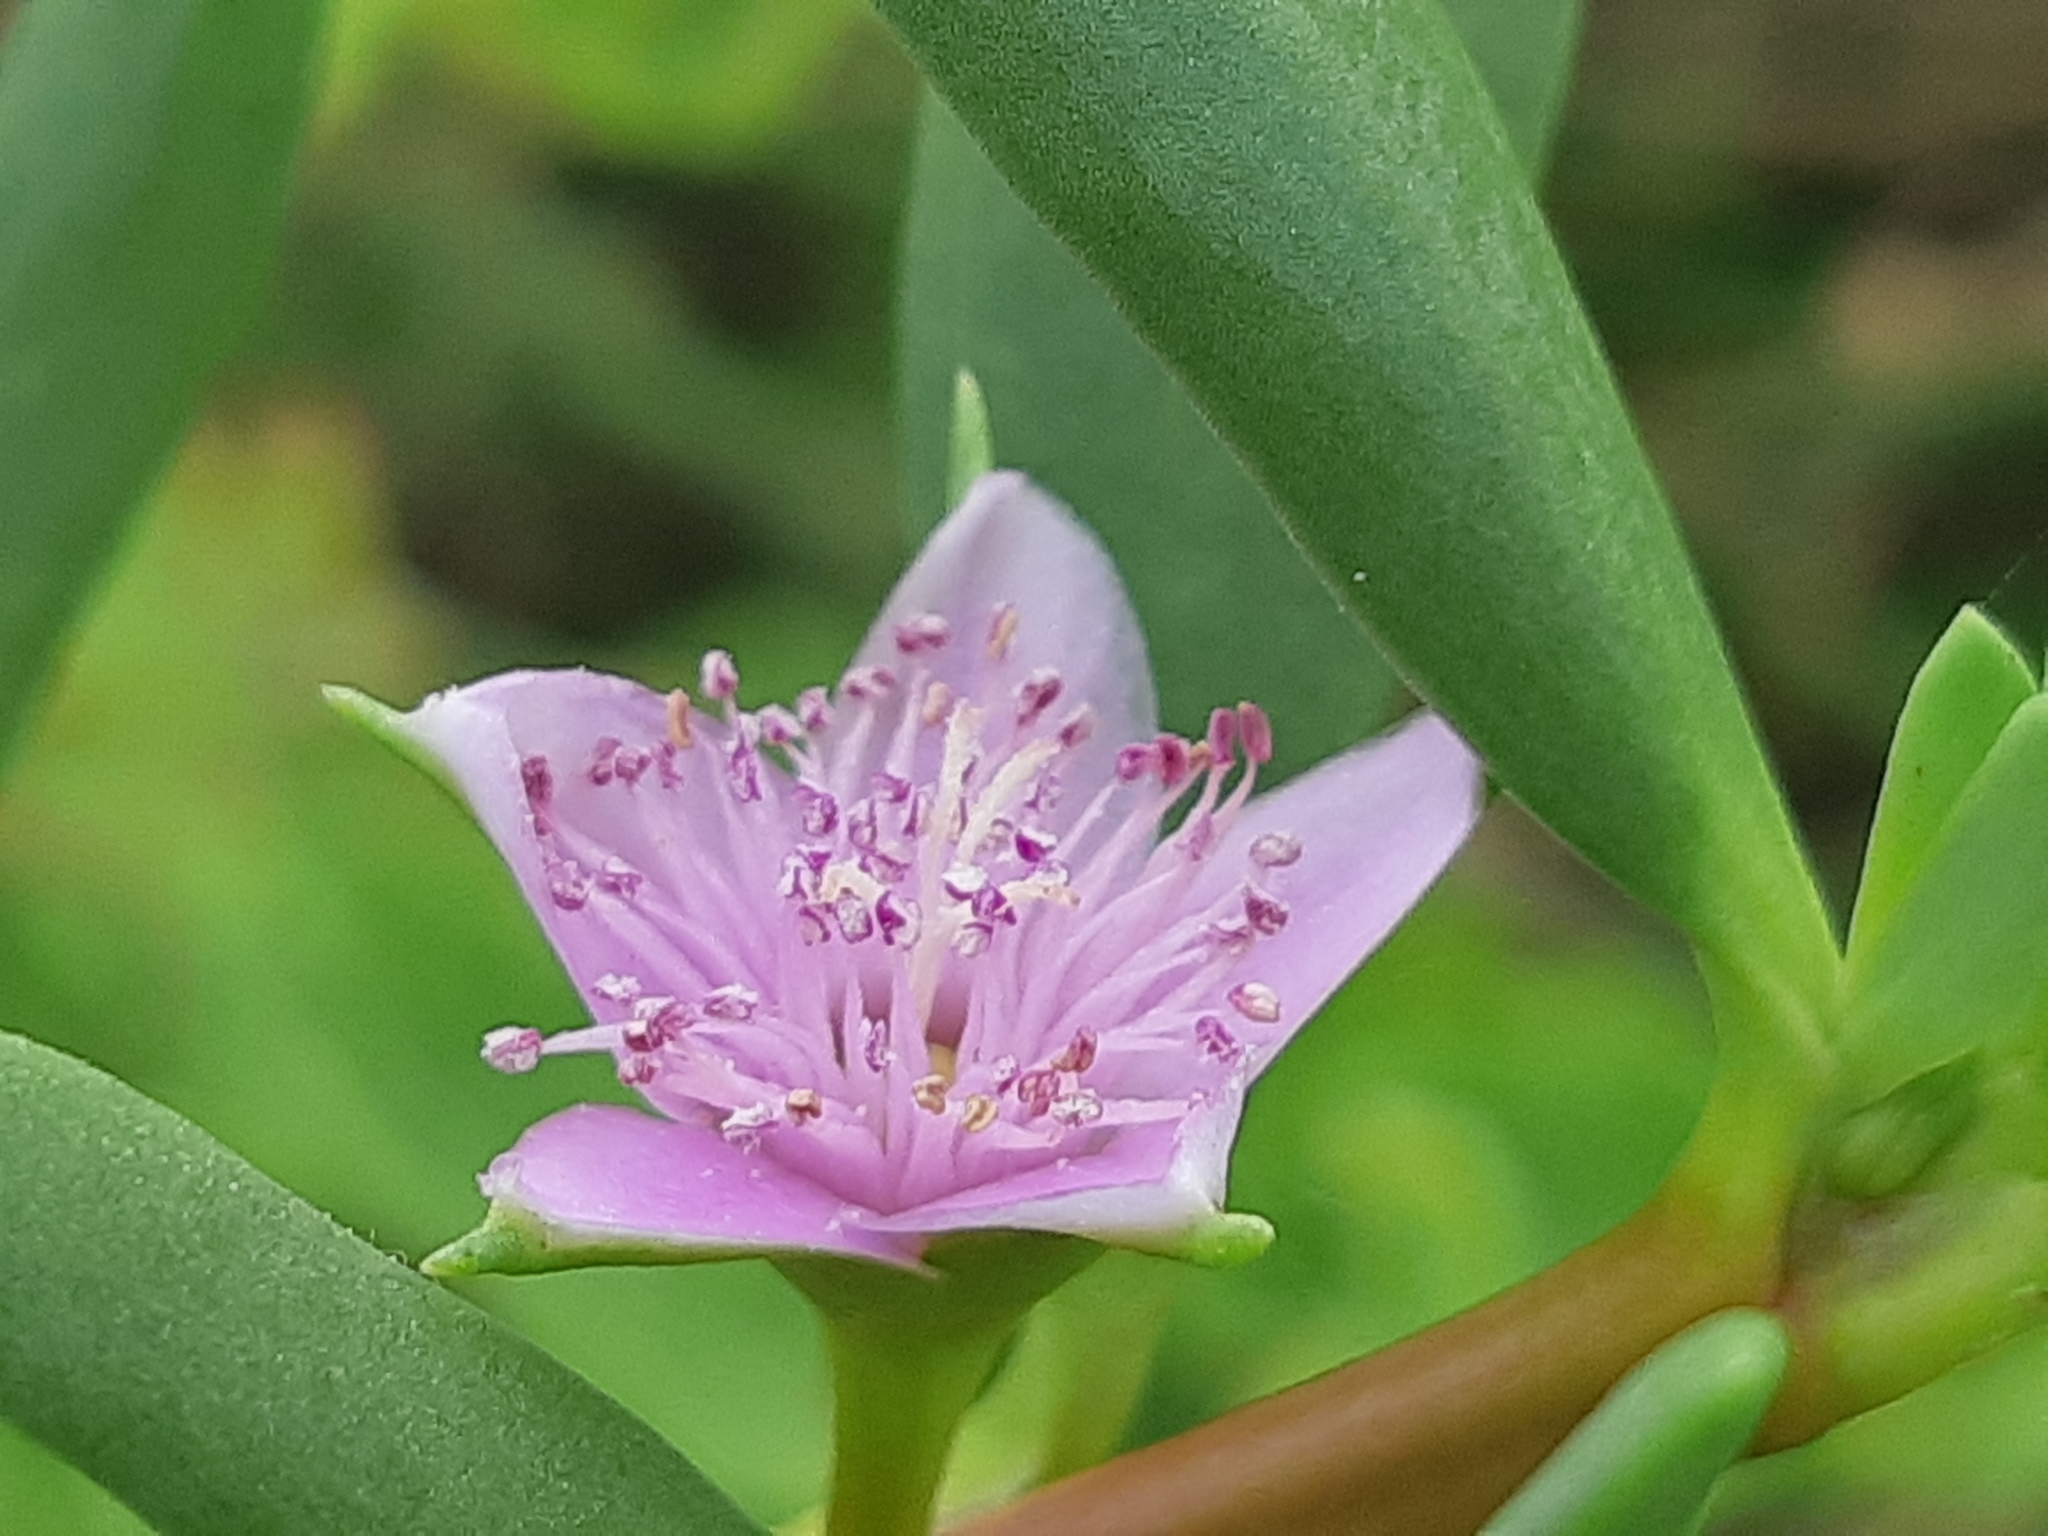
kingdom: Plantae
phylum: Tracheophyta
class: Magnoliopsida
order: Caryophyllales
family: Aizoaceae
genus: Sesuvium
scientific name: Sesuvium portulacastrum
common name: Sea-purslane
